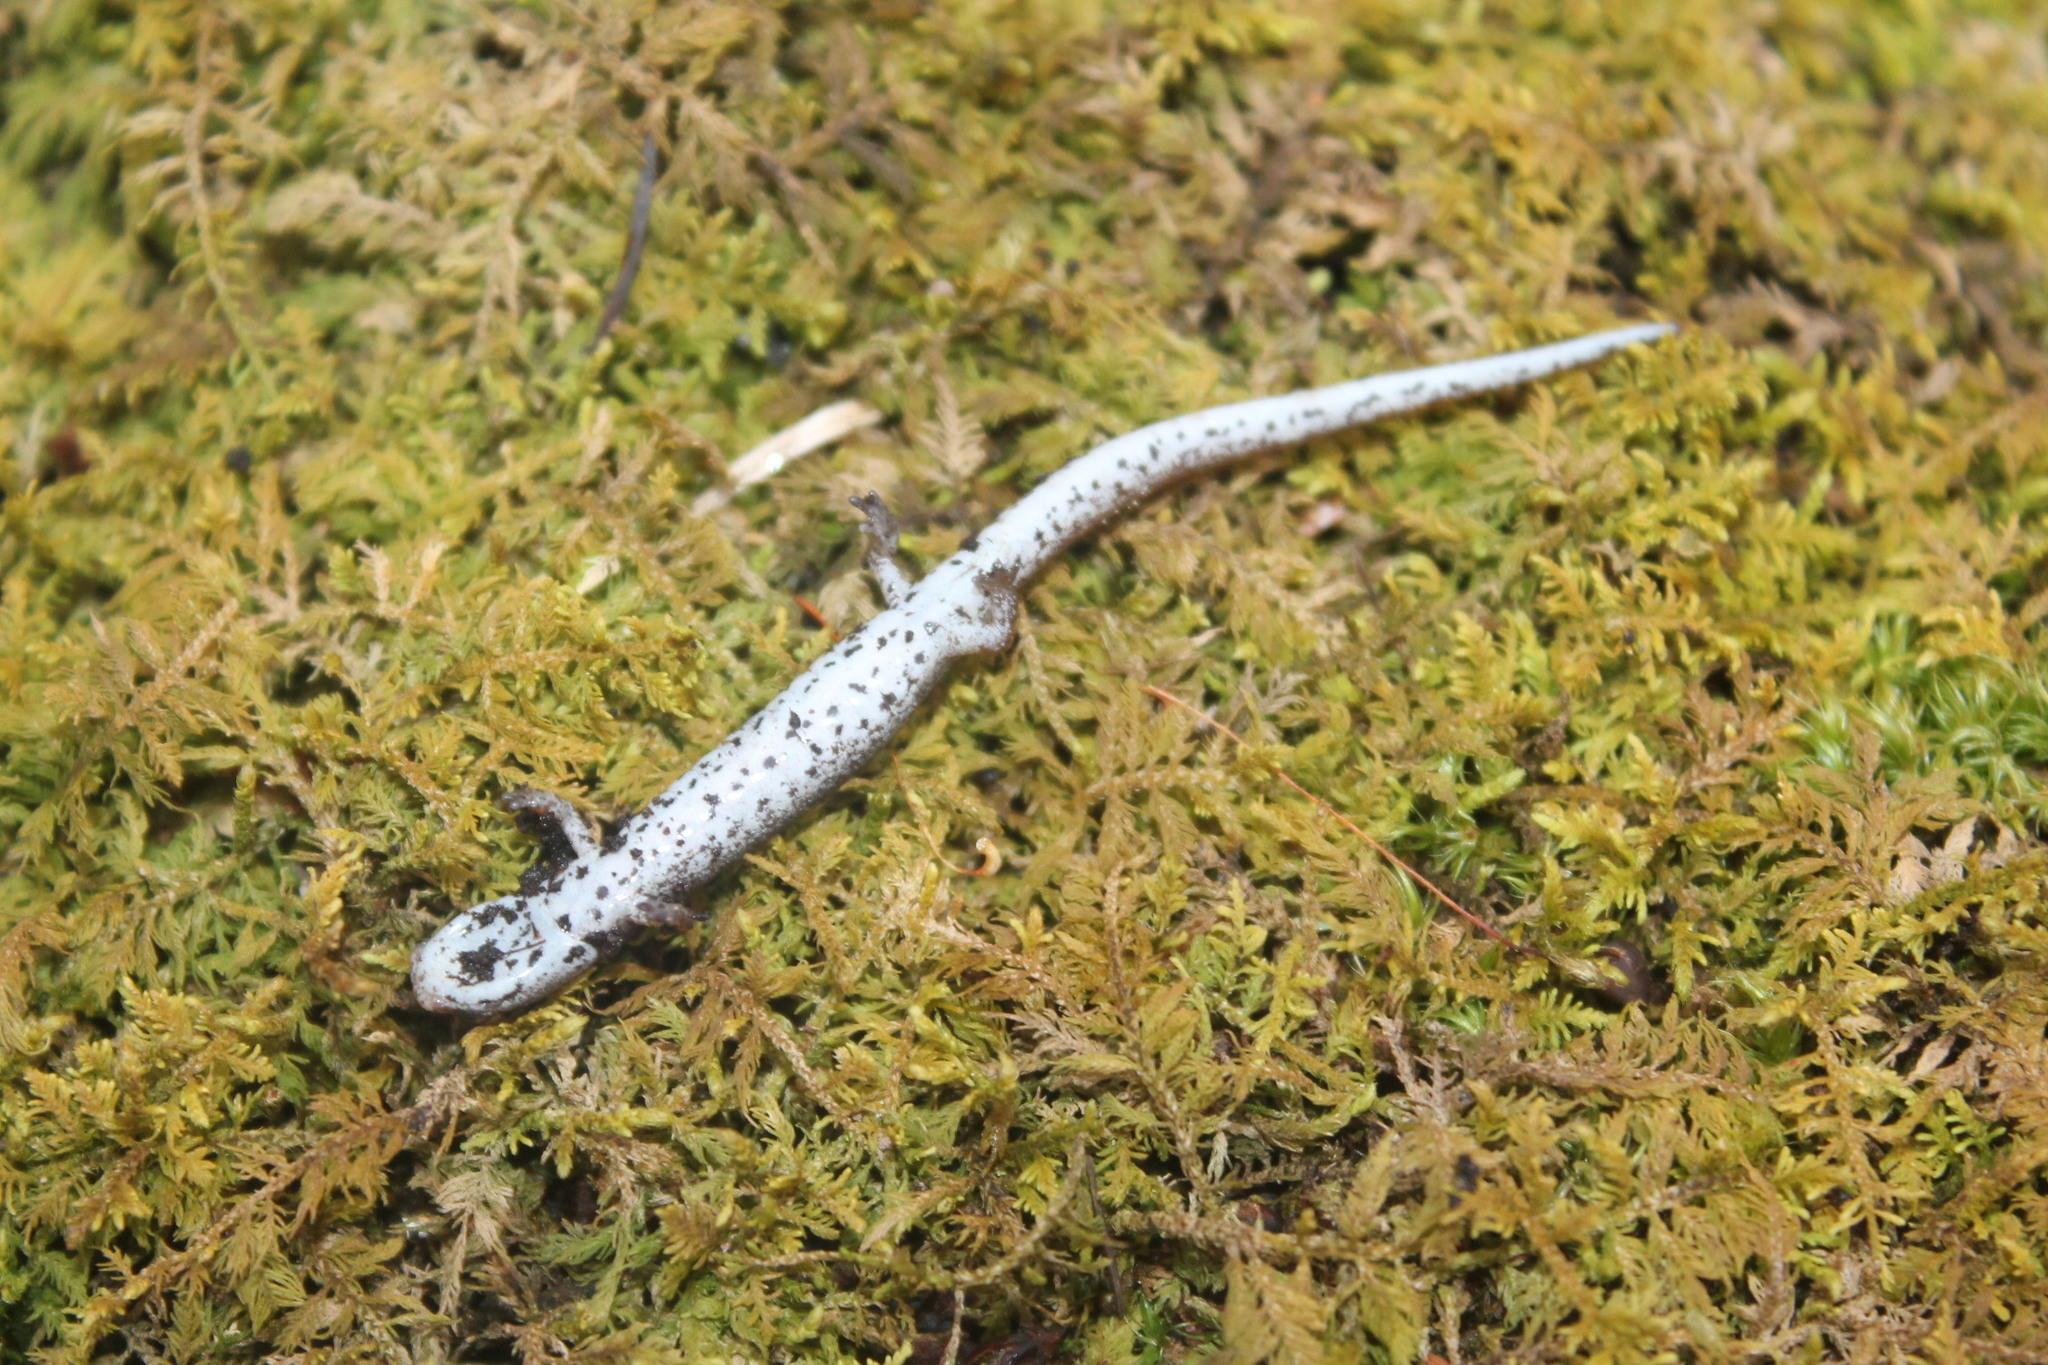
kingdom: Animalia
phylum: Chordata
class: Amphibia
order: Caudata
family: Plethodontidae
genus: Hemidactylium
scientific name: Hemidactylium scutatum
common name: Four-toed salamander
